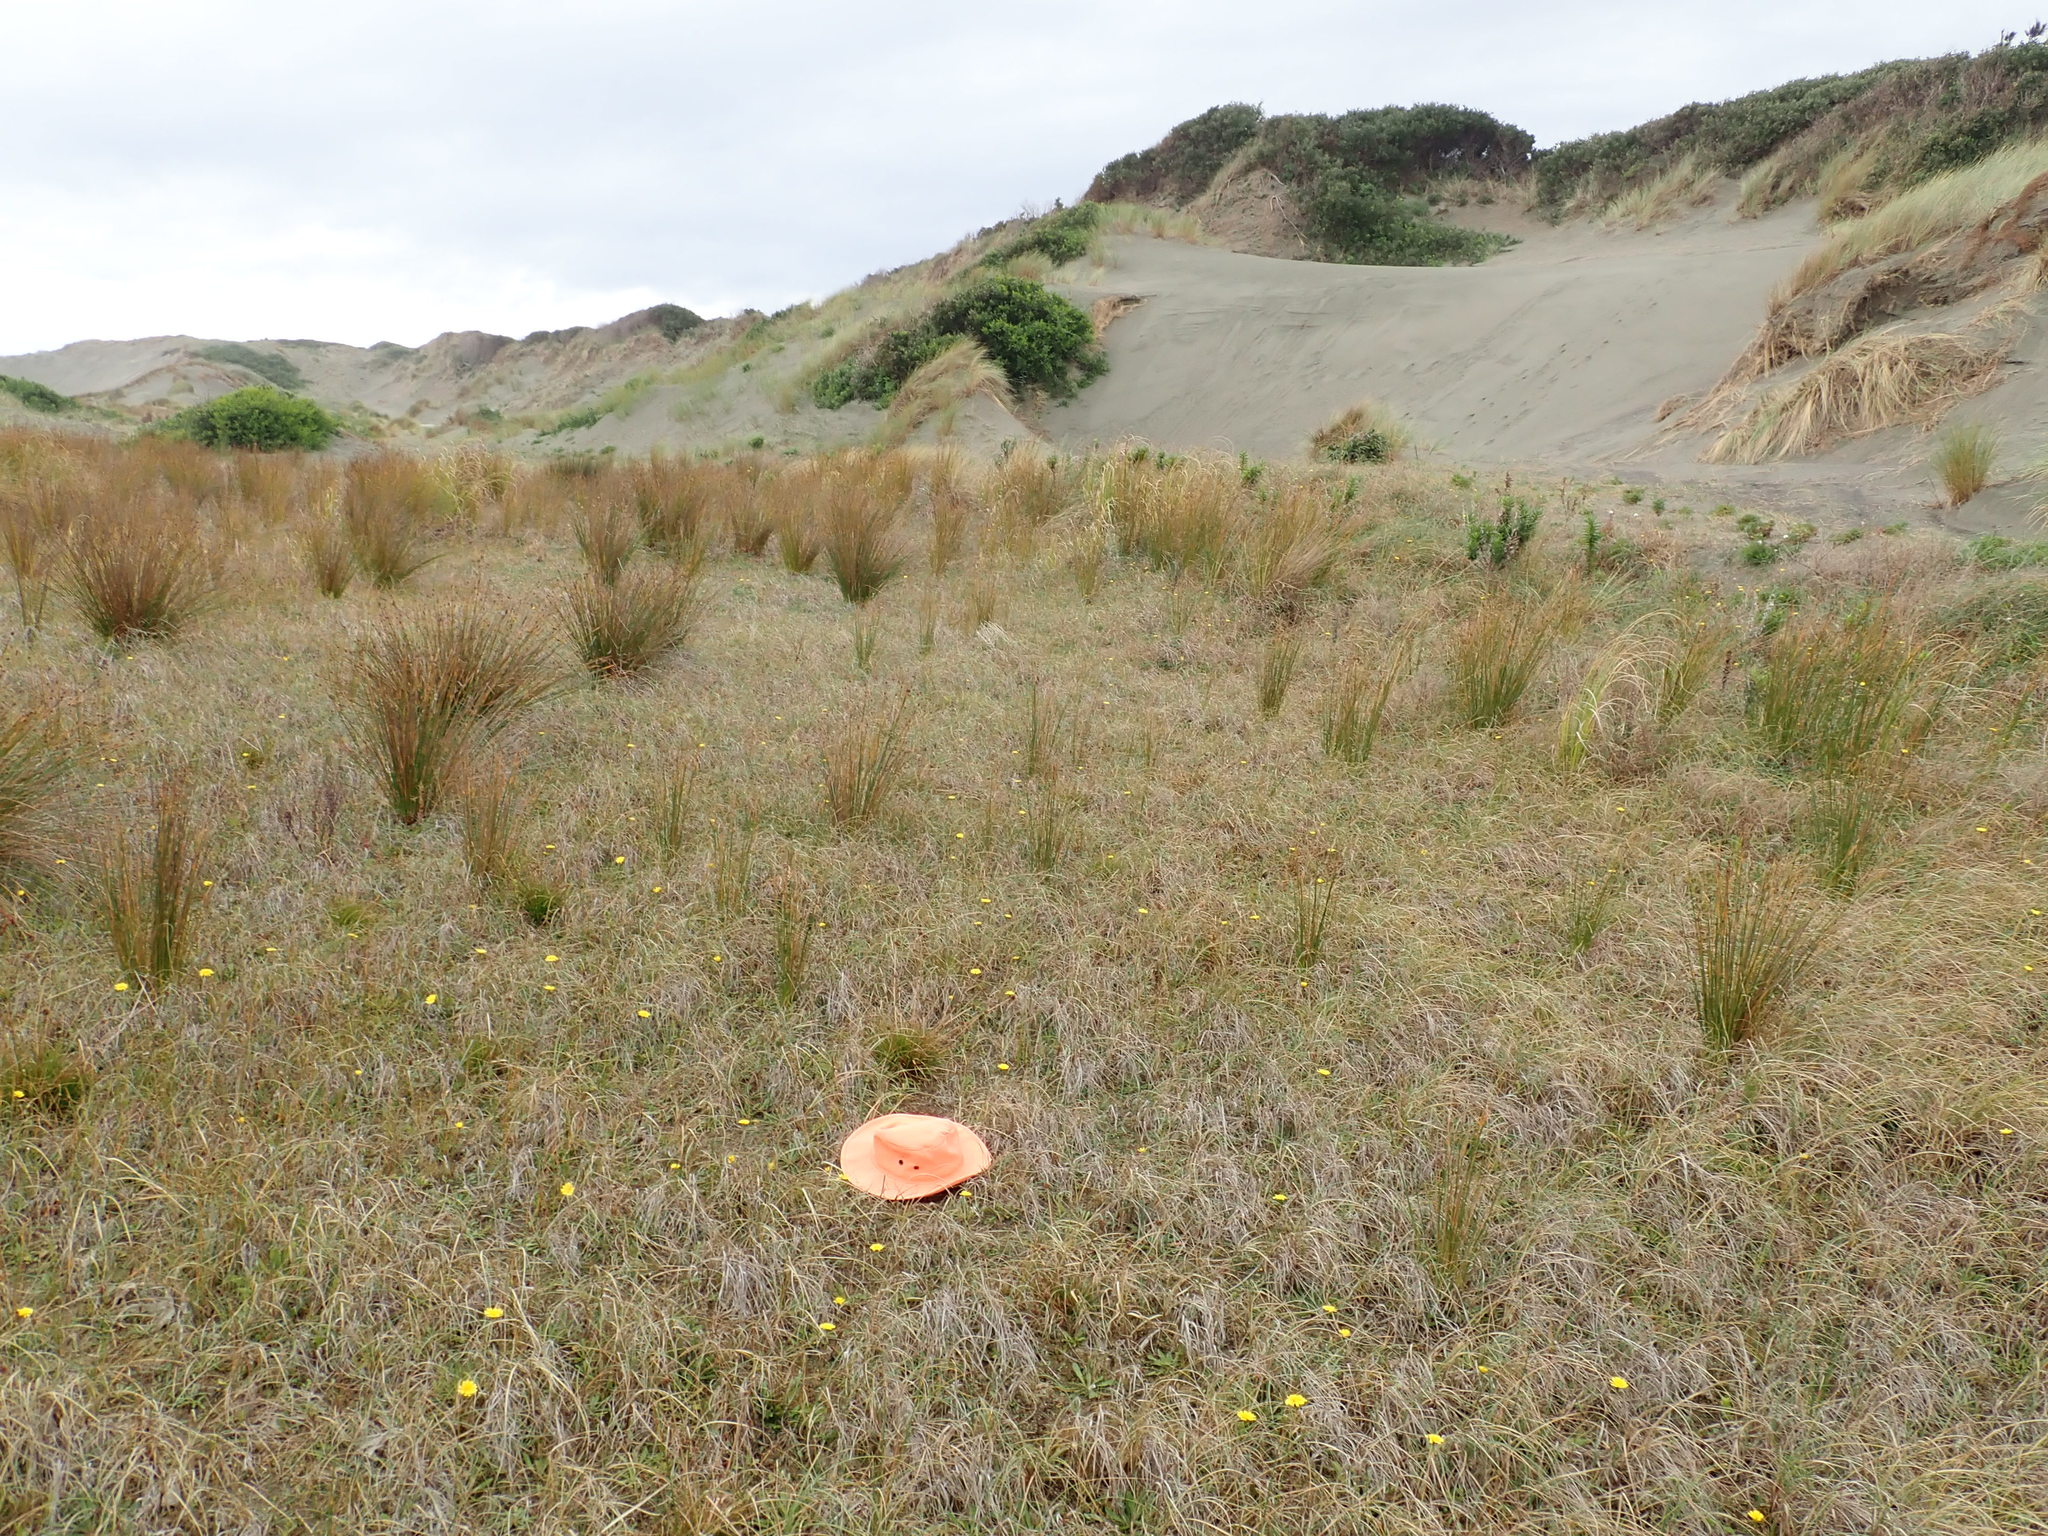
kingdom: Plantae
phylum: Tracheophyta
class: Magnoliopsida
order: Apiales
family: Apiaceae
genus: Lilaeopsis
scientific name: Lilaeopsis novae-zelandiae
